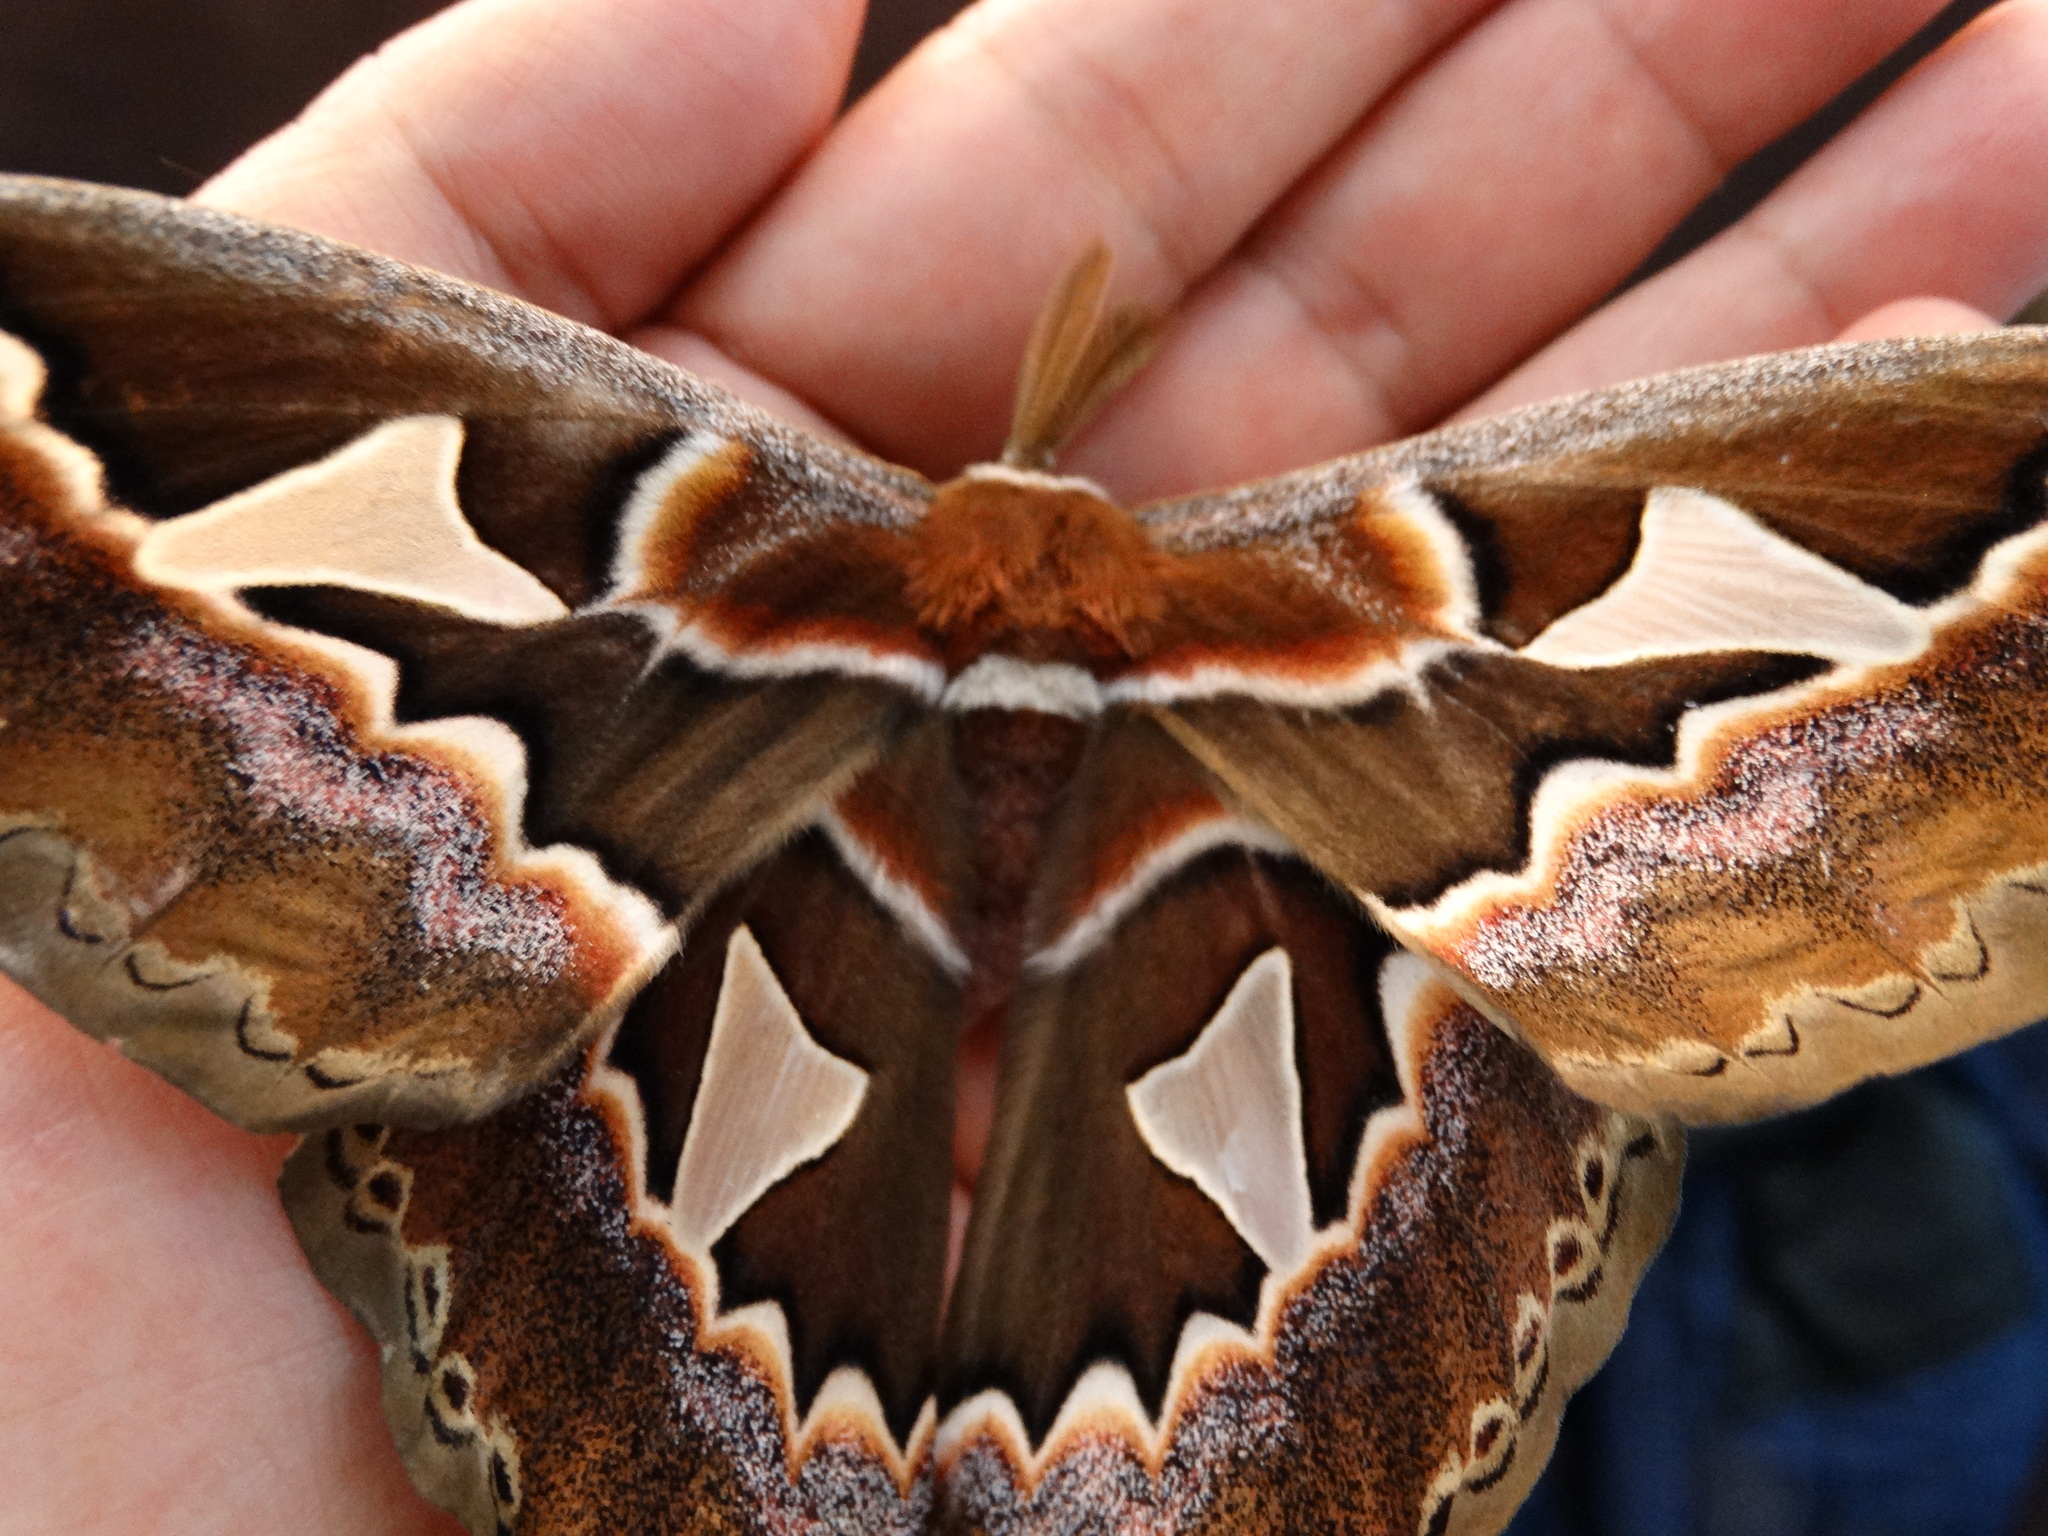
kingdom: Animalia
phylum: Arthropoda
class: Insecta
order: Lepidoptera
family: Saturniidae
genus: Rothschildia
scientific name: Rothschildia orizaba
